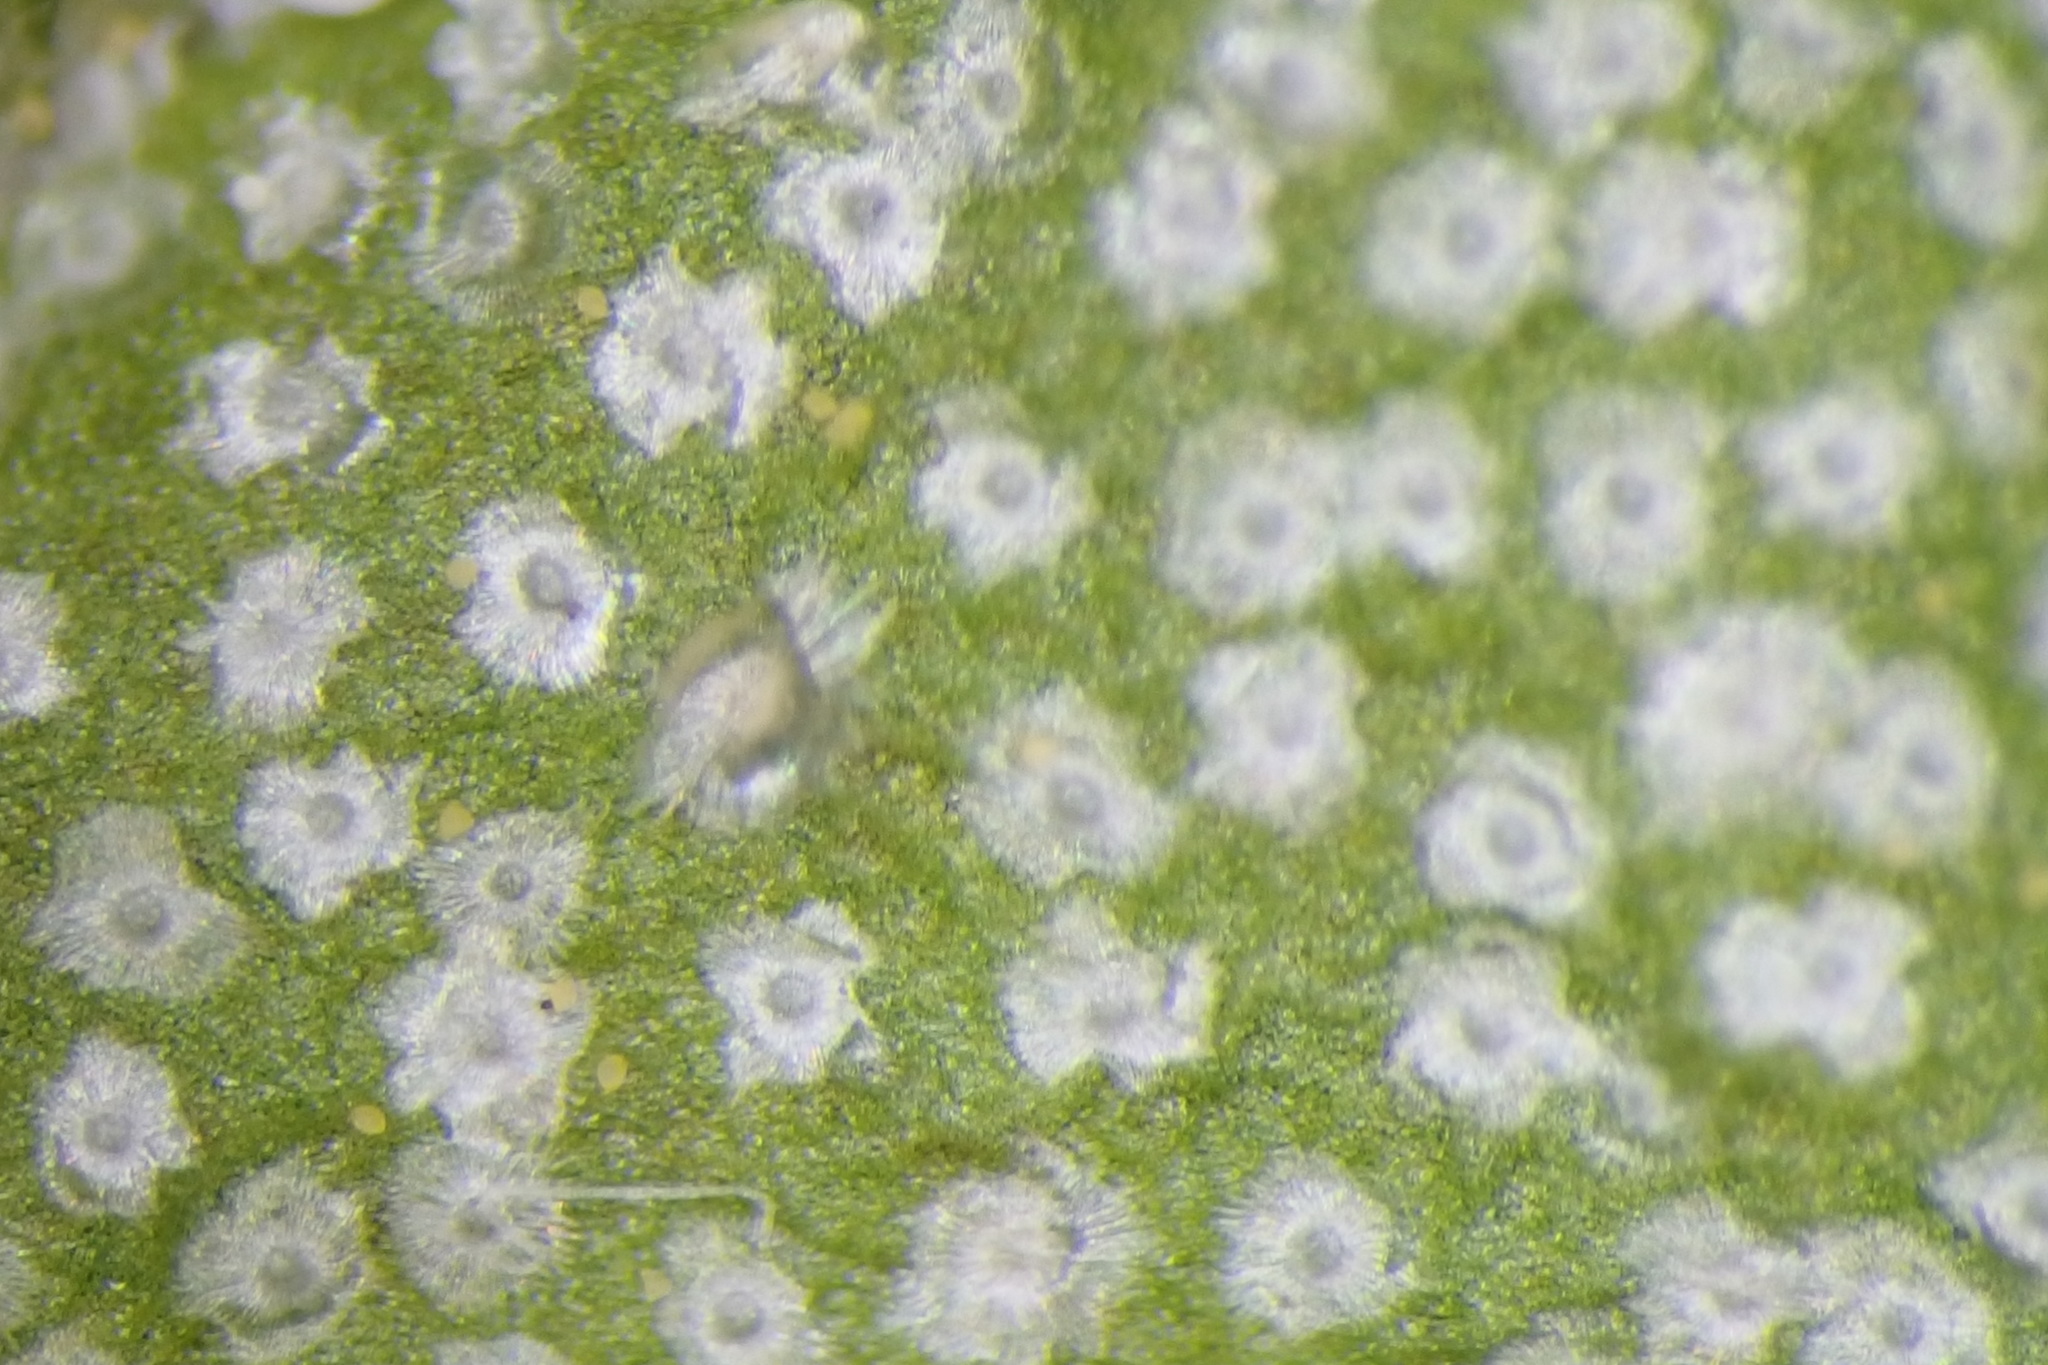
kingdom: Plantae
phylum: Tracheophyta
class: Magnoliopsida
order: Rosales
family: Elaeagnaceae
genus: Elaeagnus
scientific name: Elaeagnus umbellata
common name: Autumn olive
